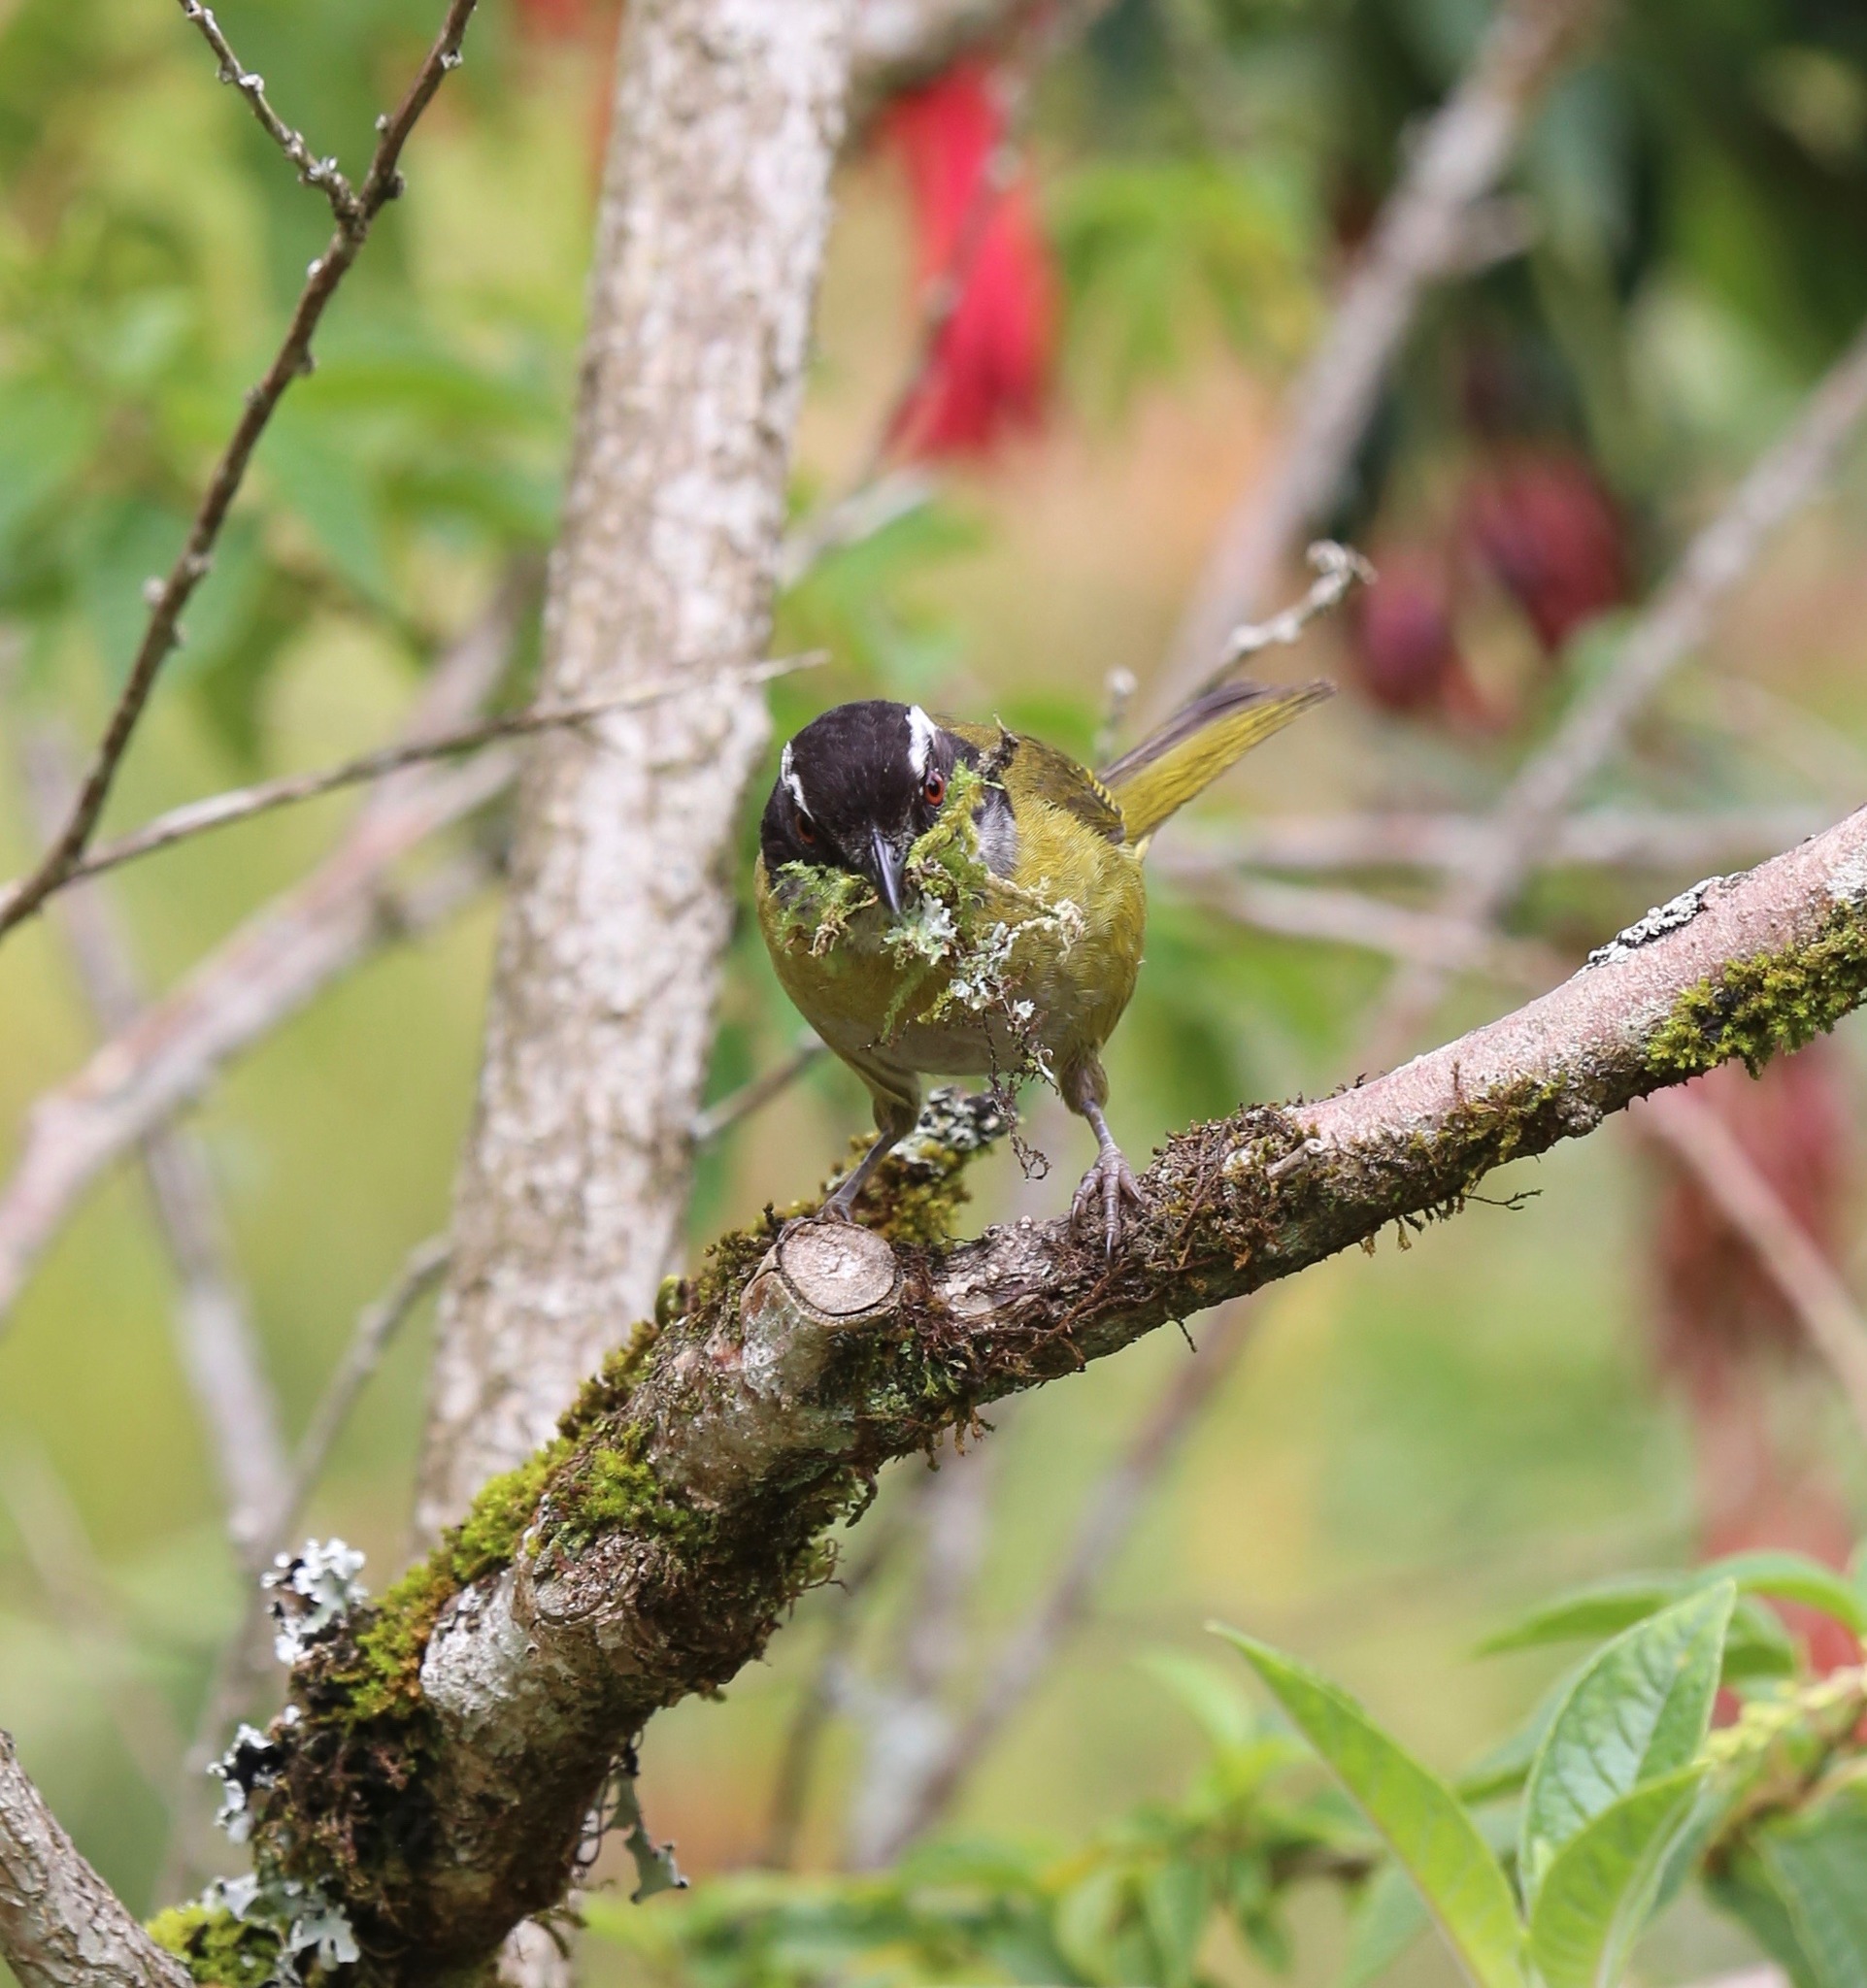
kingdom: Animalia
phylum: Chordata
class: Aves
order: Passeriformes
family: Passerellidae
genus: Chlorospingus
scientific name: Chlorospingus pileatus
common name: Sooty-capped bush-tanager
